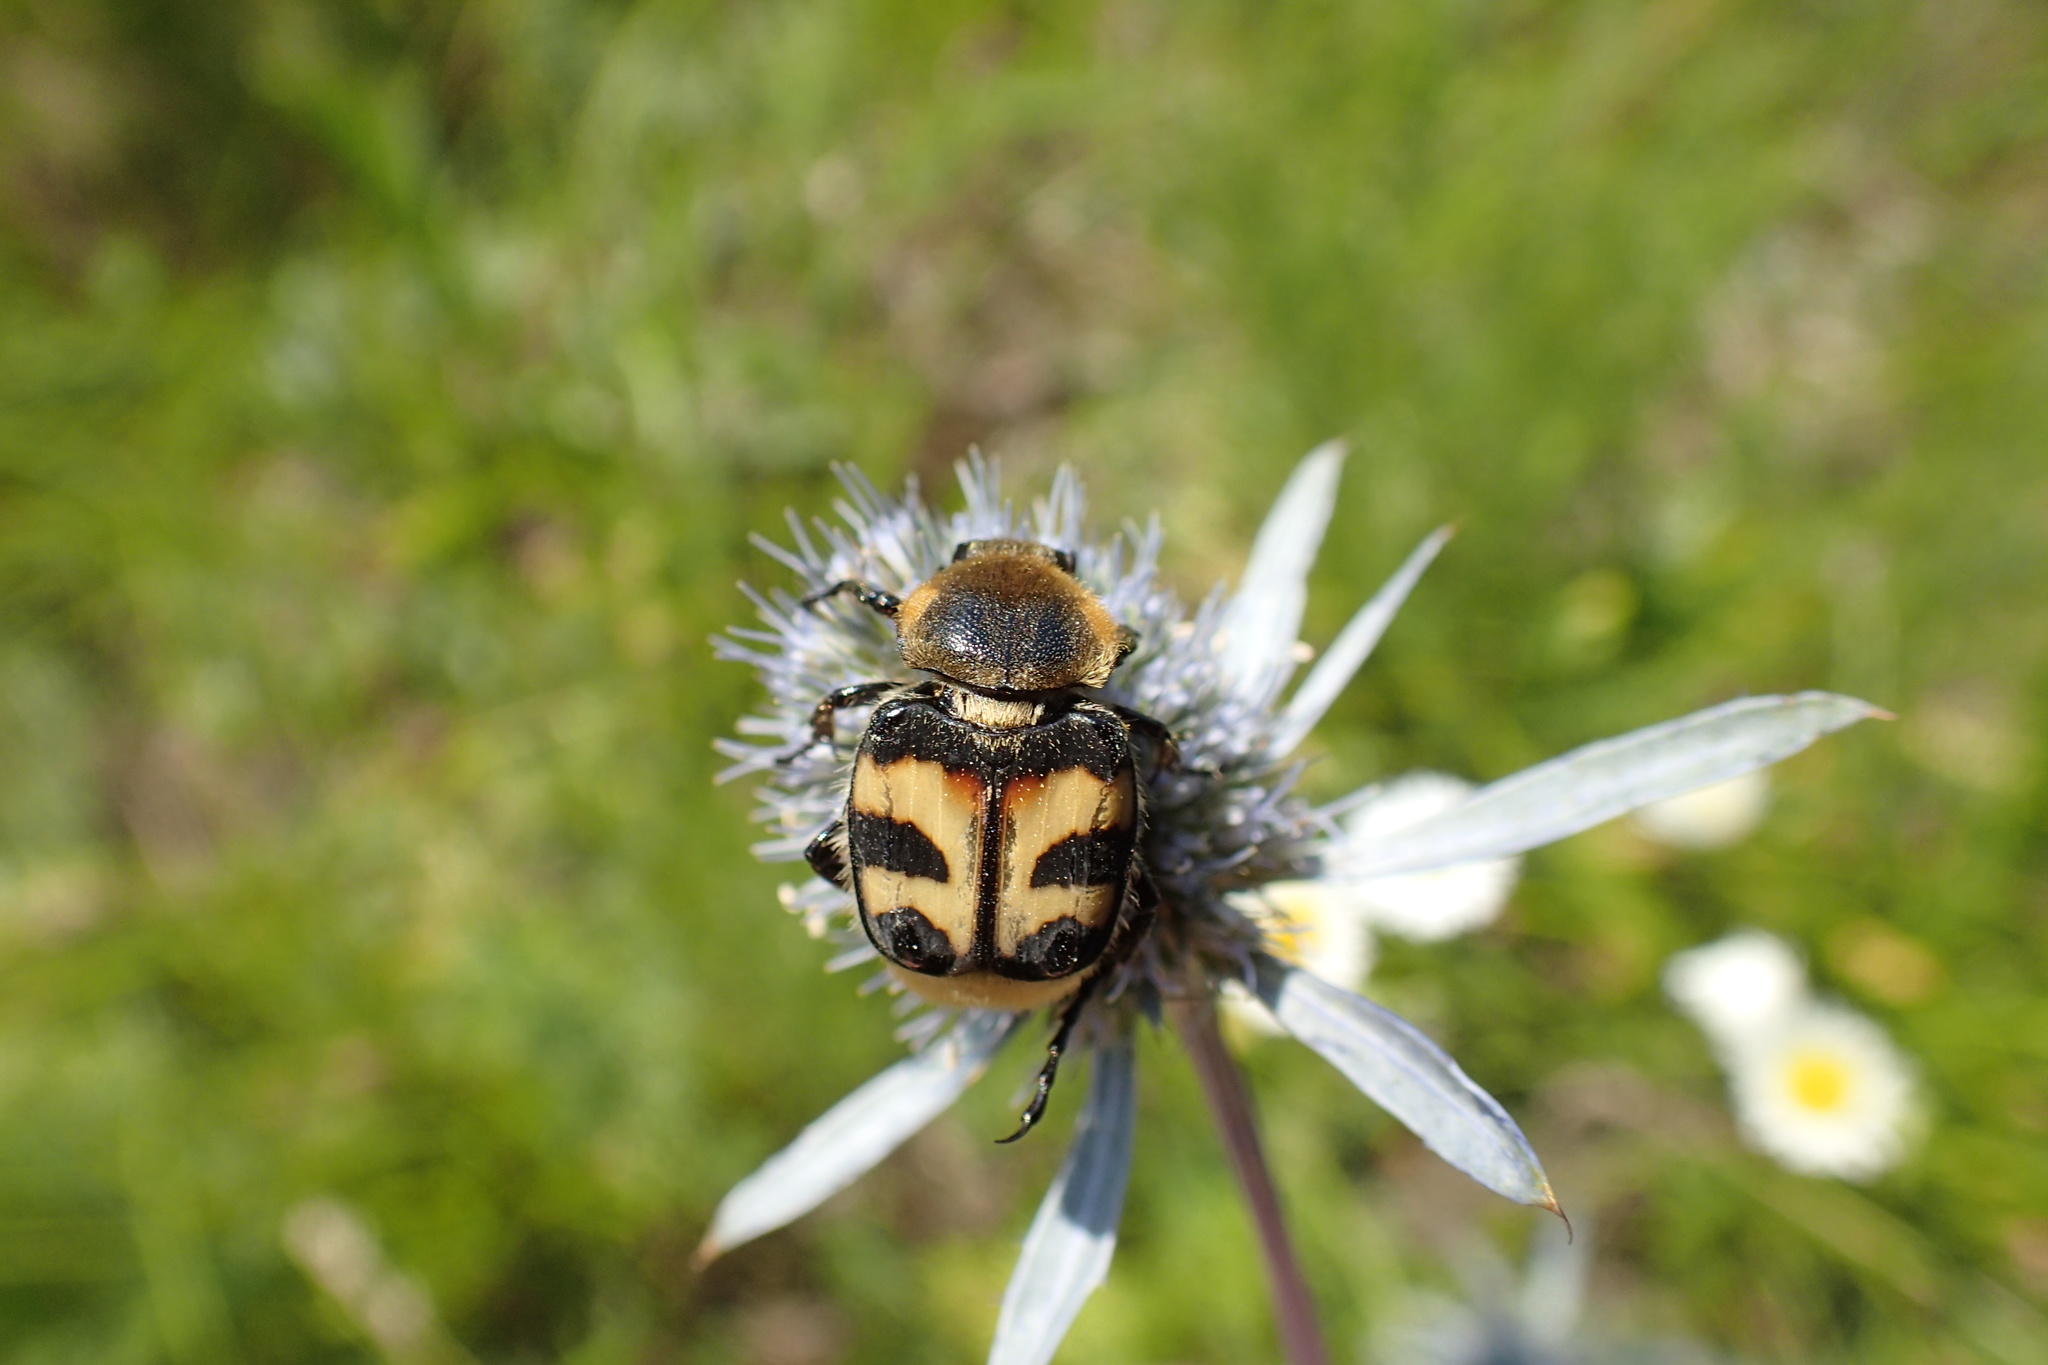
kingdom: Animalia
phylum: Arthropoda
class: Insecta
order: Coleoptera
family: Scarabaeidae
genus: Trichius
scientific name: Trichius fasciatus
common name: Bee beetle
